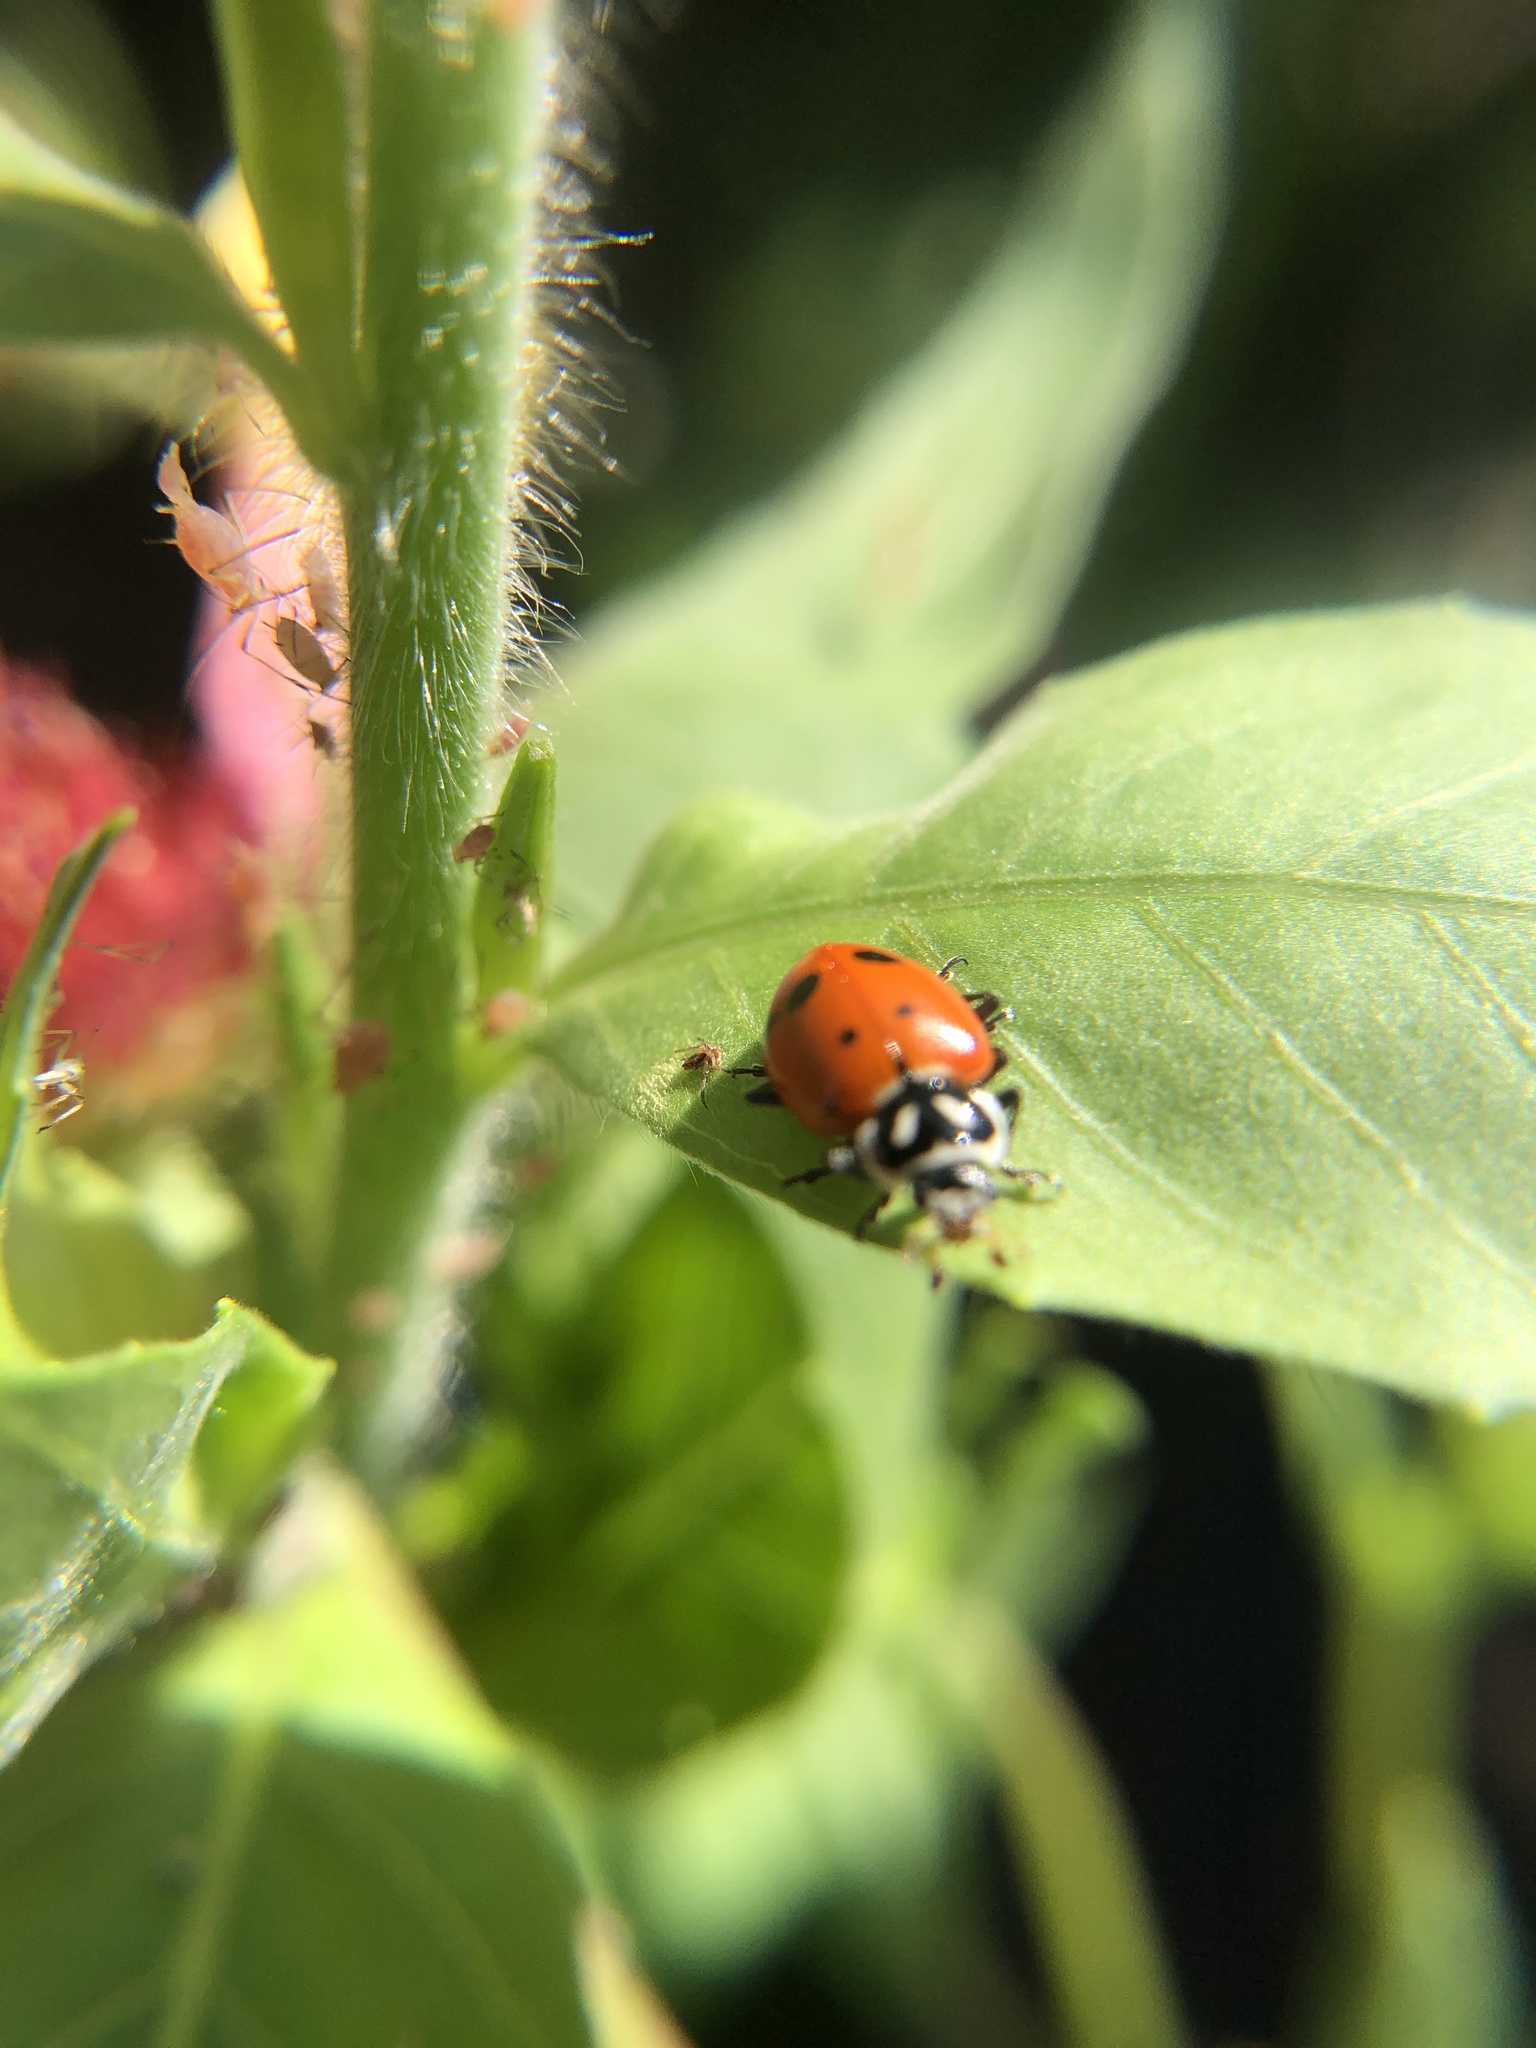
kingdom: Animalia
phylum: Arthropoda
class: Insecta
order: Coleoptera
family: Coccinellidae
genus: Hippodamia
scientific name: Hippodamia convergens
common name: Convergent lady beetle
